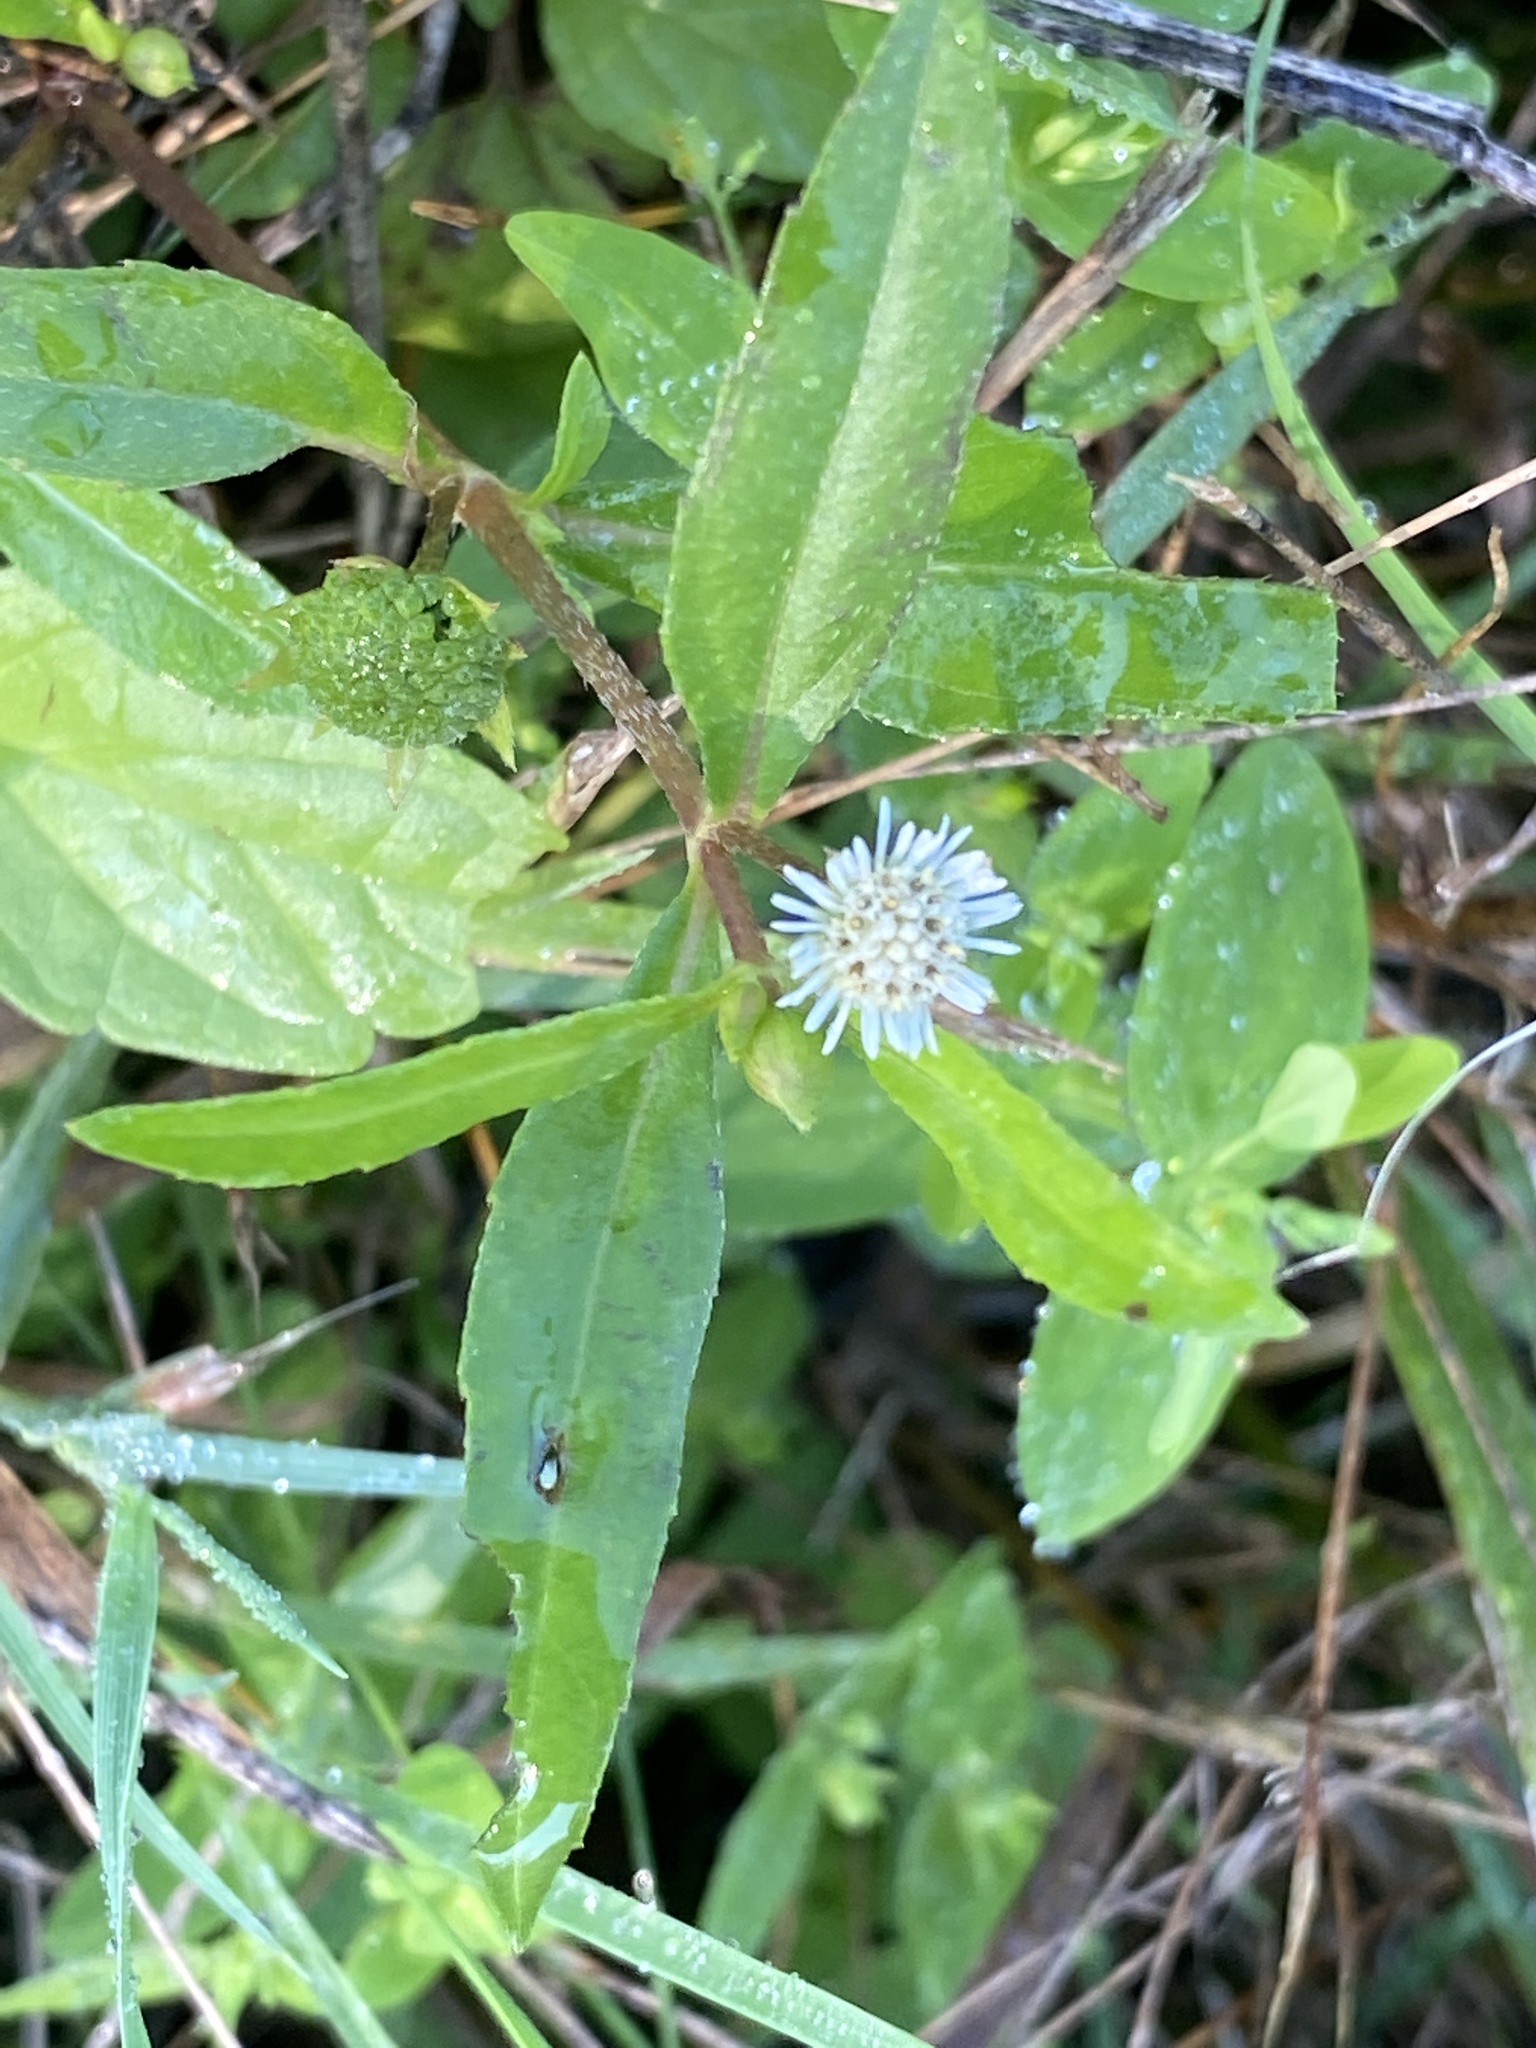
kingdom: Plantae
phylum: Tracheophyta
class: Magnoliopsida
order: Asterales
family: Asteraceae
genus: Eclipta
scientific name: Eclipta prostrata
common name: False daisy
